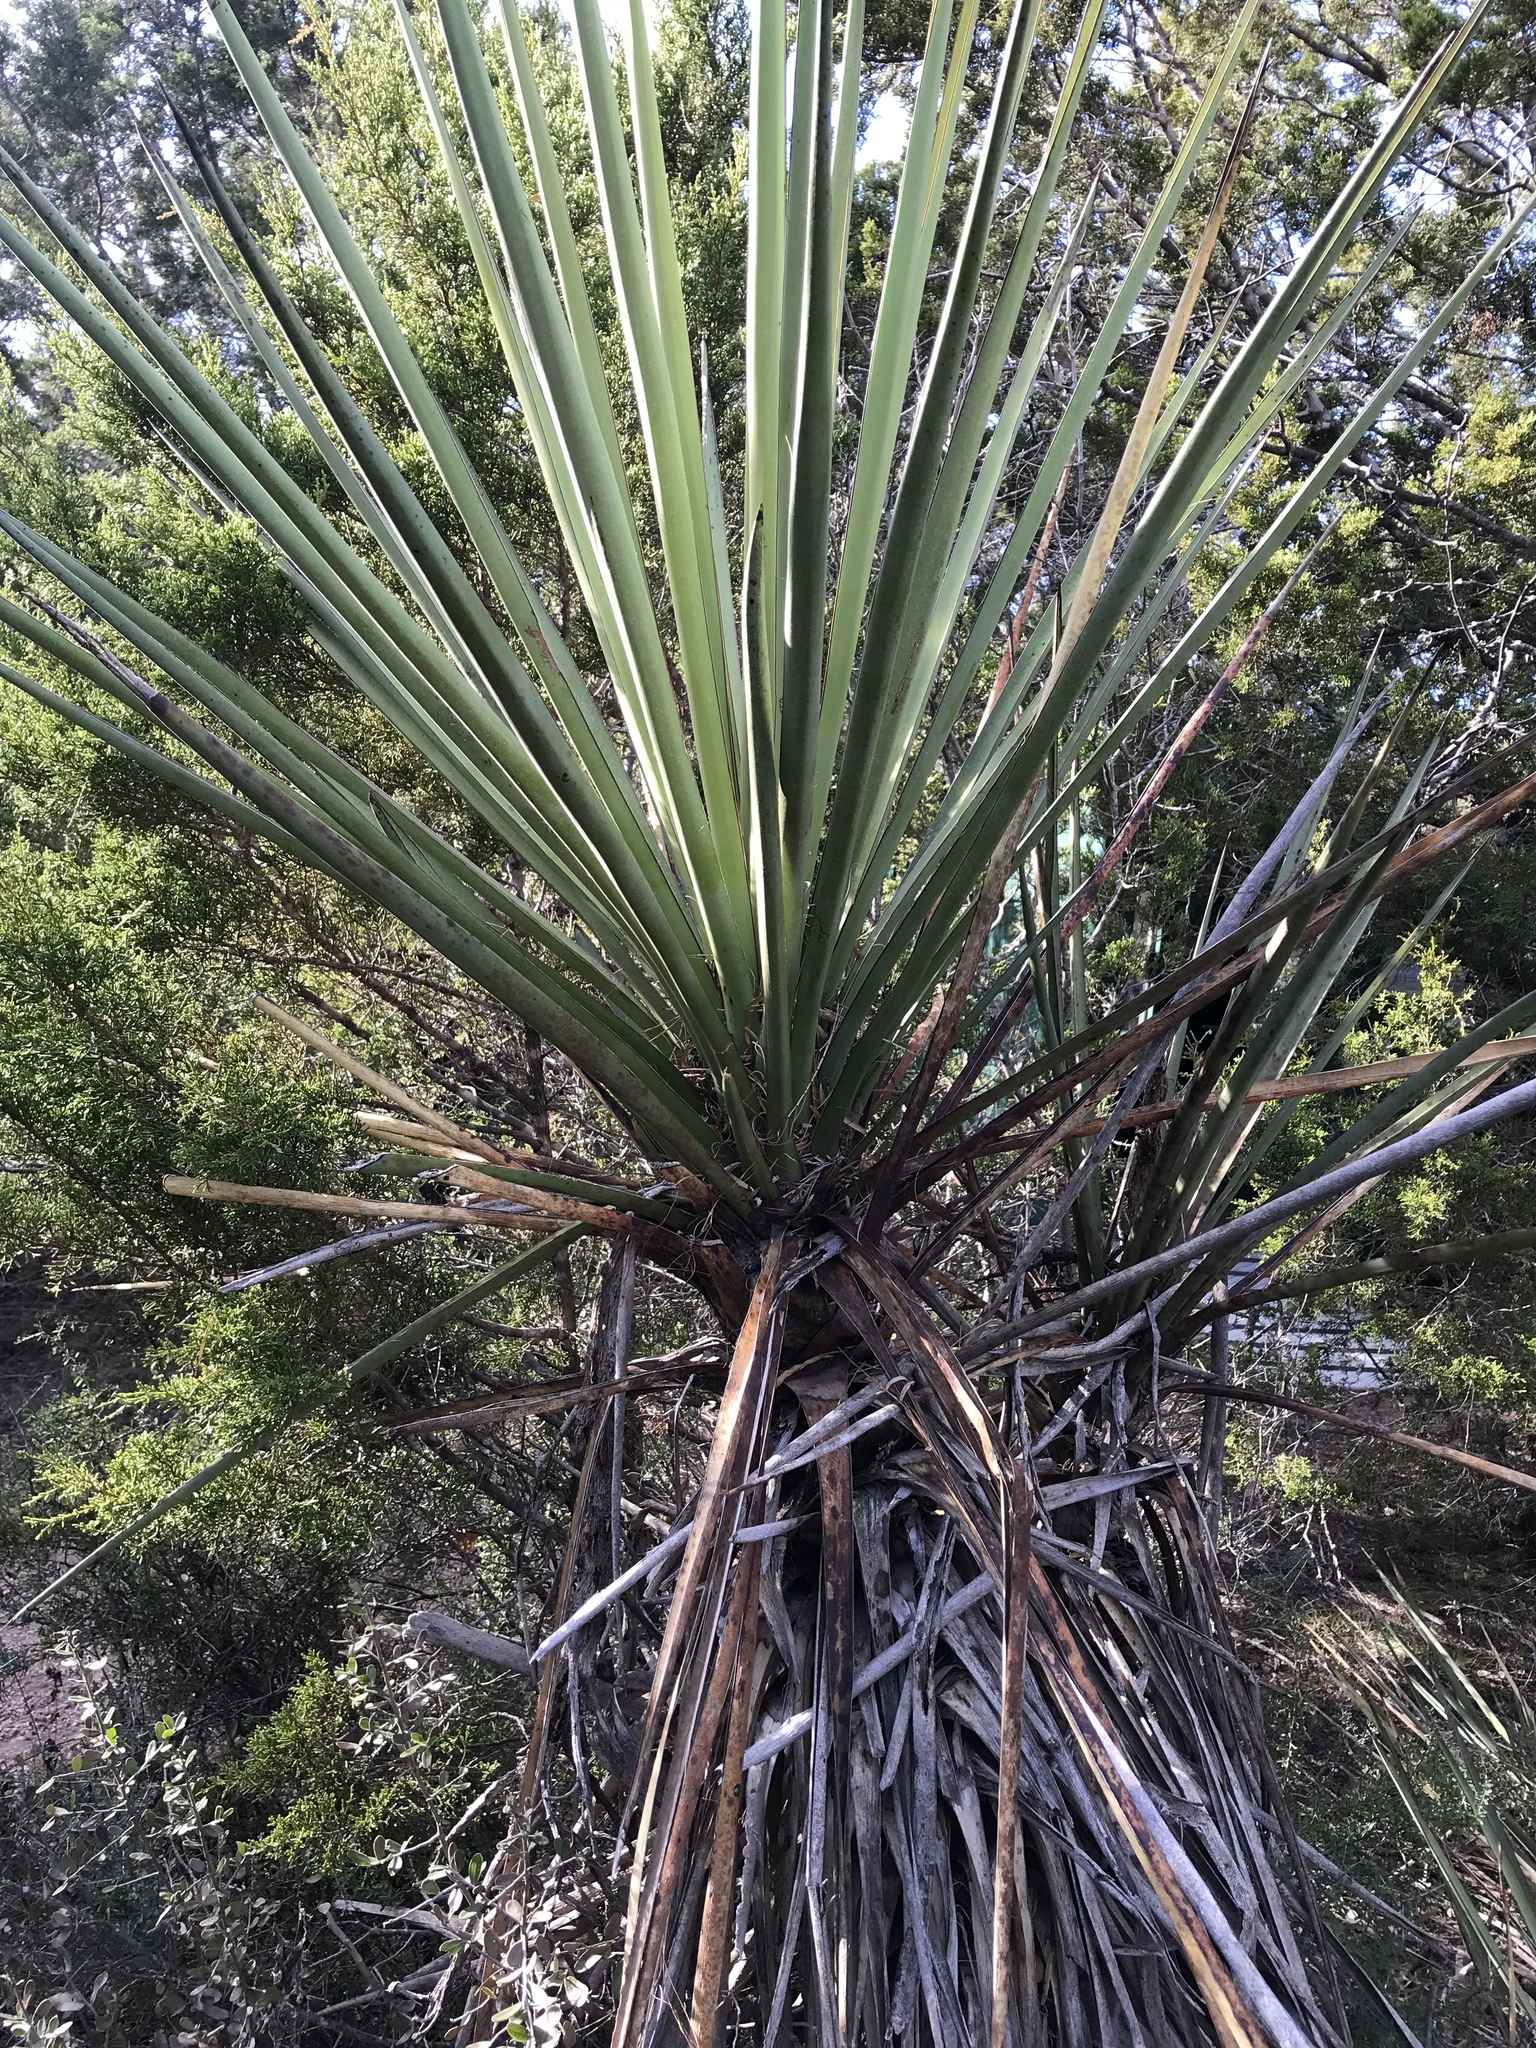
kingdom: Plantae
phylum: Tracheophyta
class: Liliopsida
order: Asparagales
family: Asparagaceae
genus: Yucca
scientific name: Yucca treculiana
